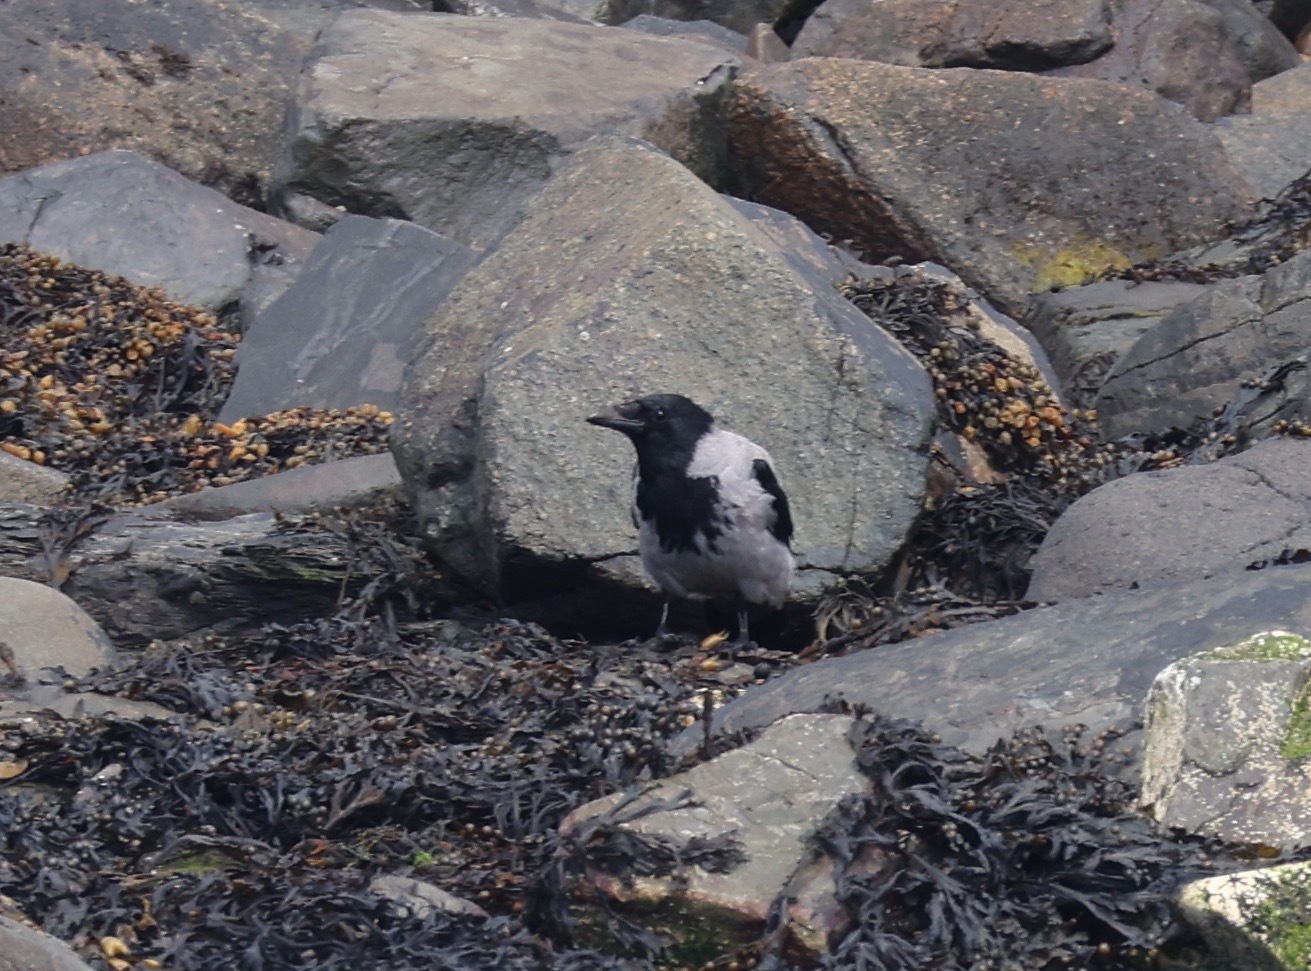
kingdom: Animalia
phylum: Chordata
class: Aves
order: Passeriformes
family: Corvidae
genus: Corvus
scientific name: Corvus cornix
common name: Hooded crow
